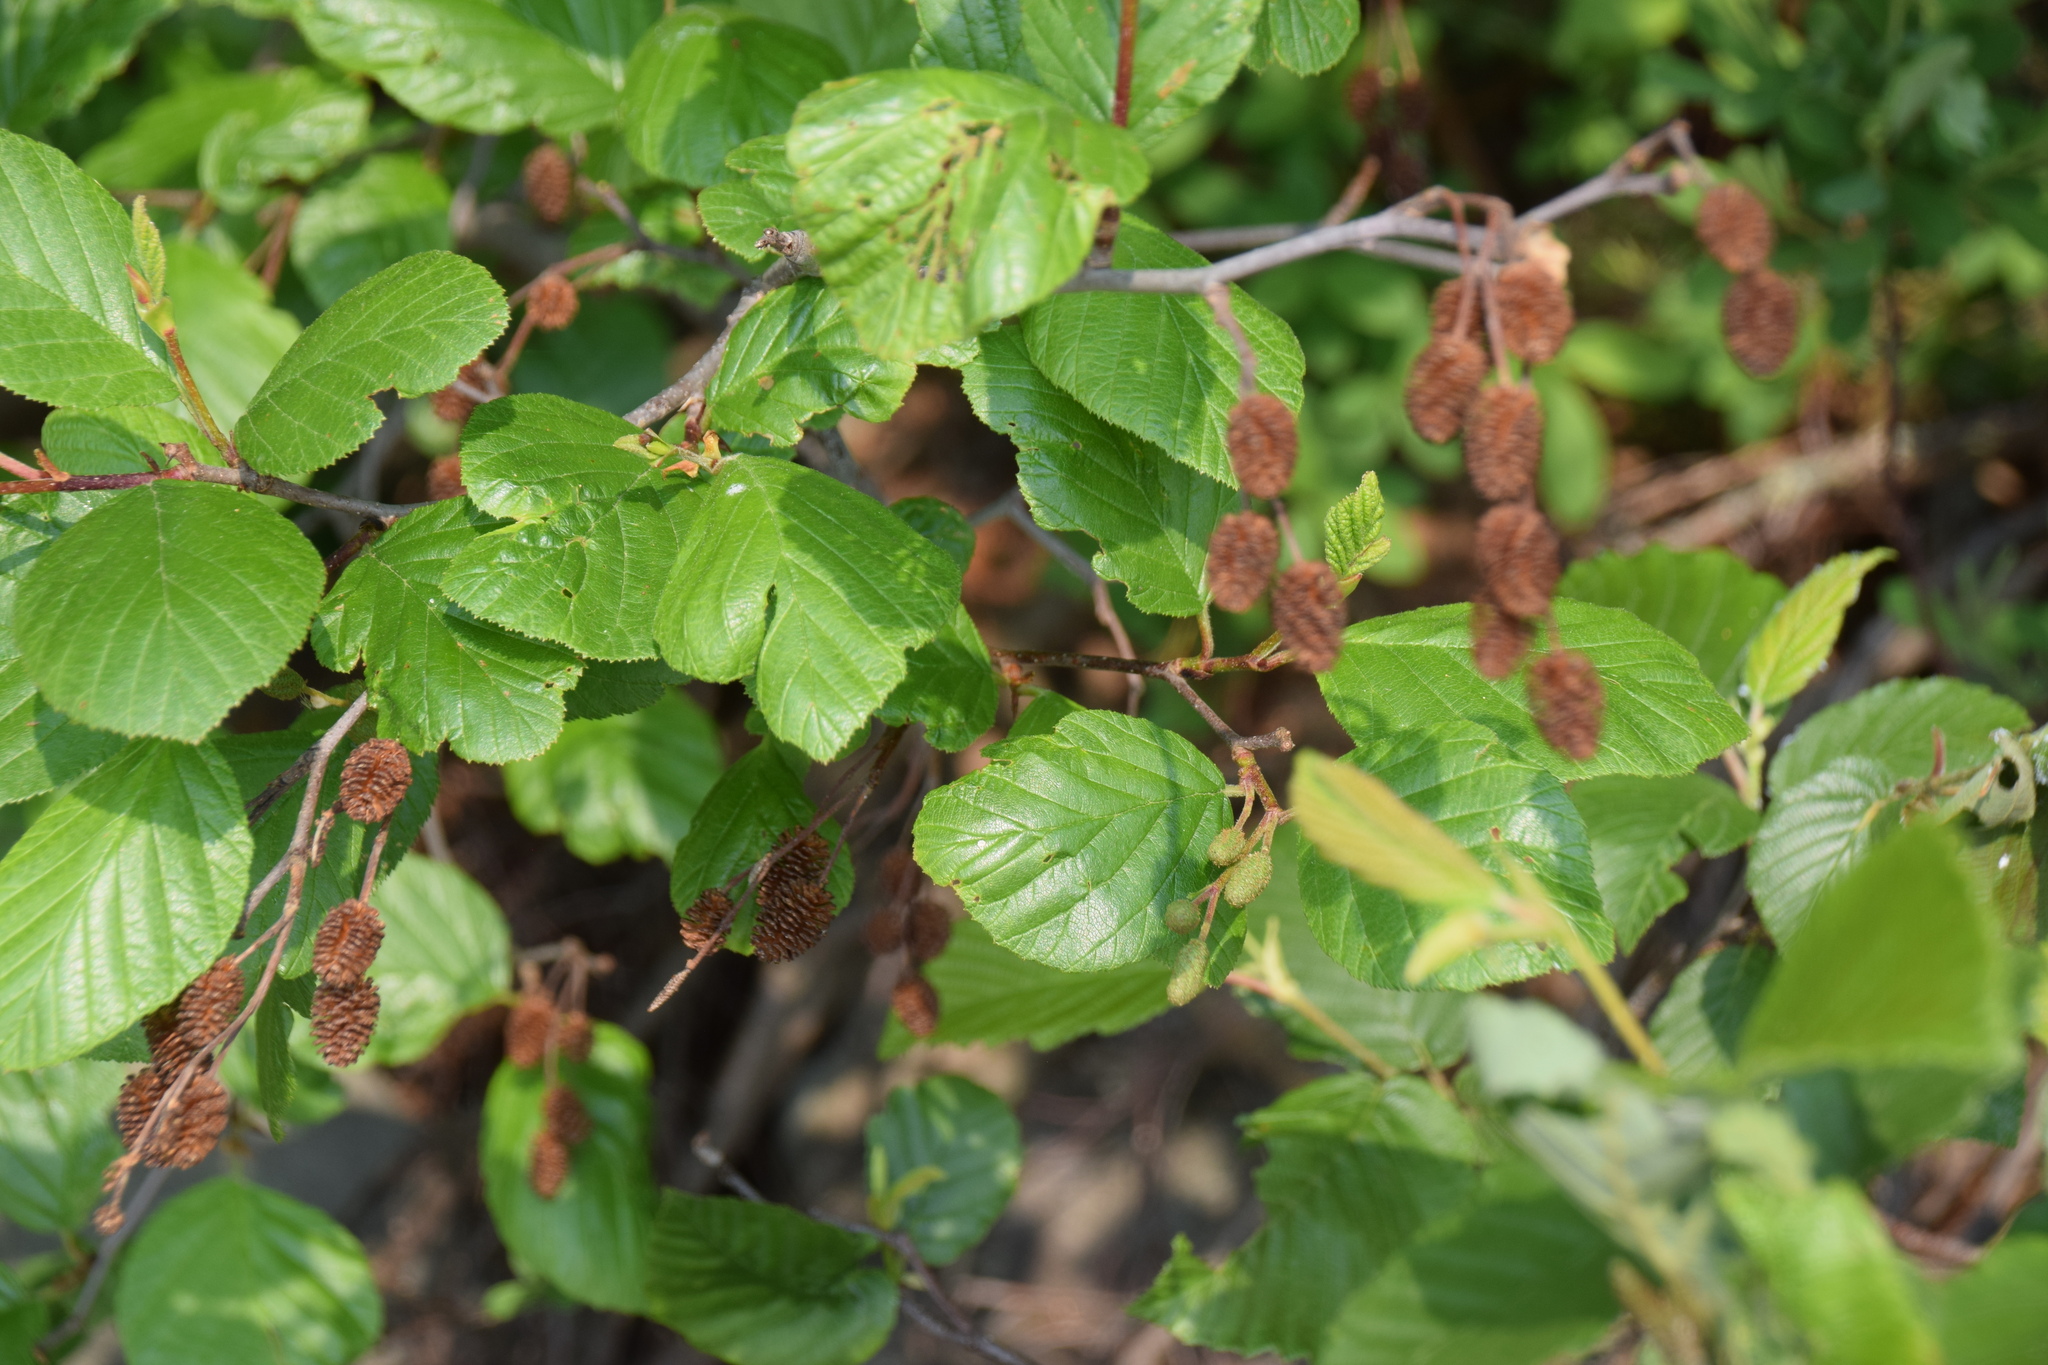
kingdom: Plantae
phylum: Tracheophyta
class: Magnoliopsida
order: Fagales
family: Betulaceae
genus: Alnus
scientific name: Alnus alnobetula
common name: Green alder
